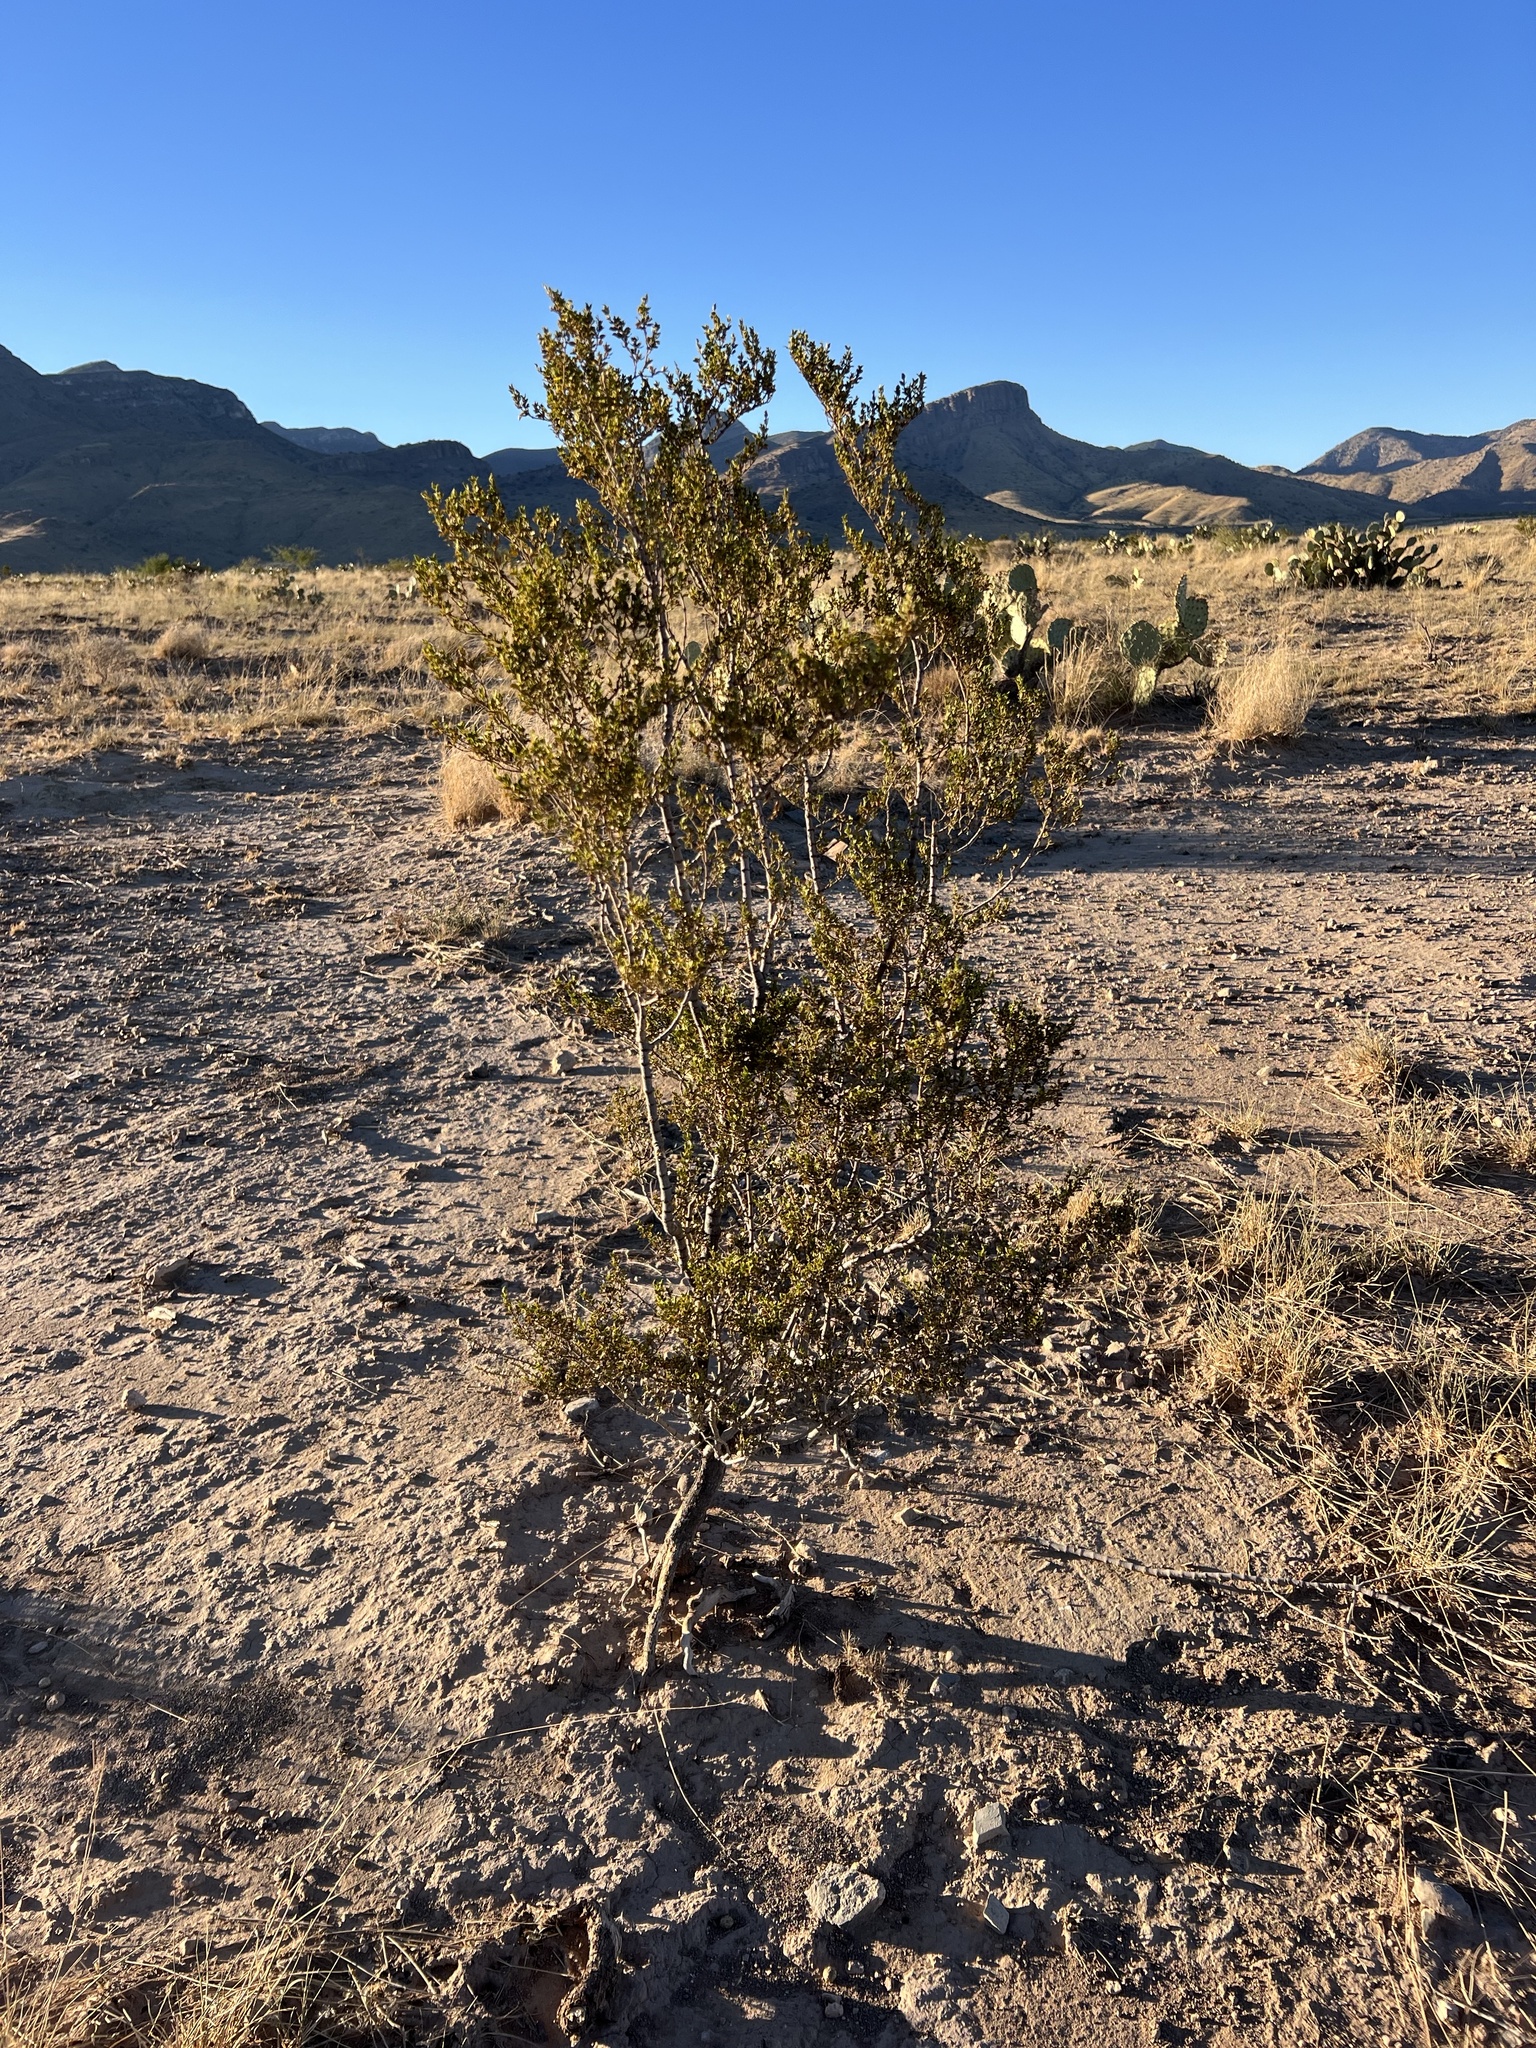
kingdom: Plantae
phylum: Tracheophyta
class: Magnoliopsida
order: Zygophyllales
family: Zygophyllaceae
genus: Larrea
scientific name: Larrea tridentata
